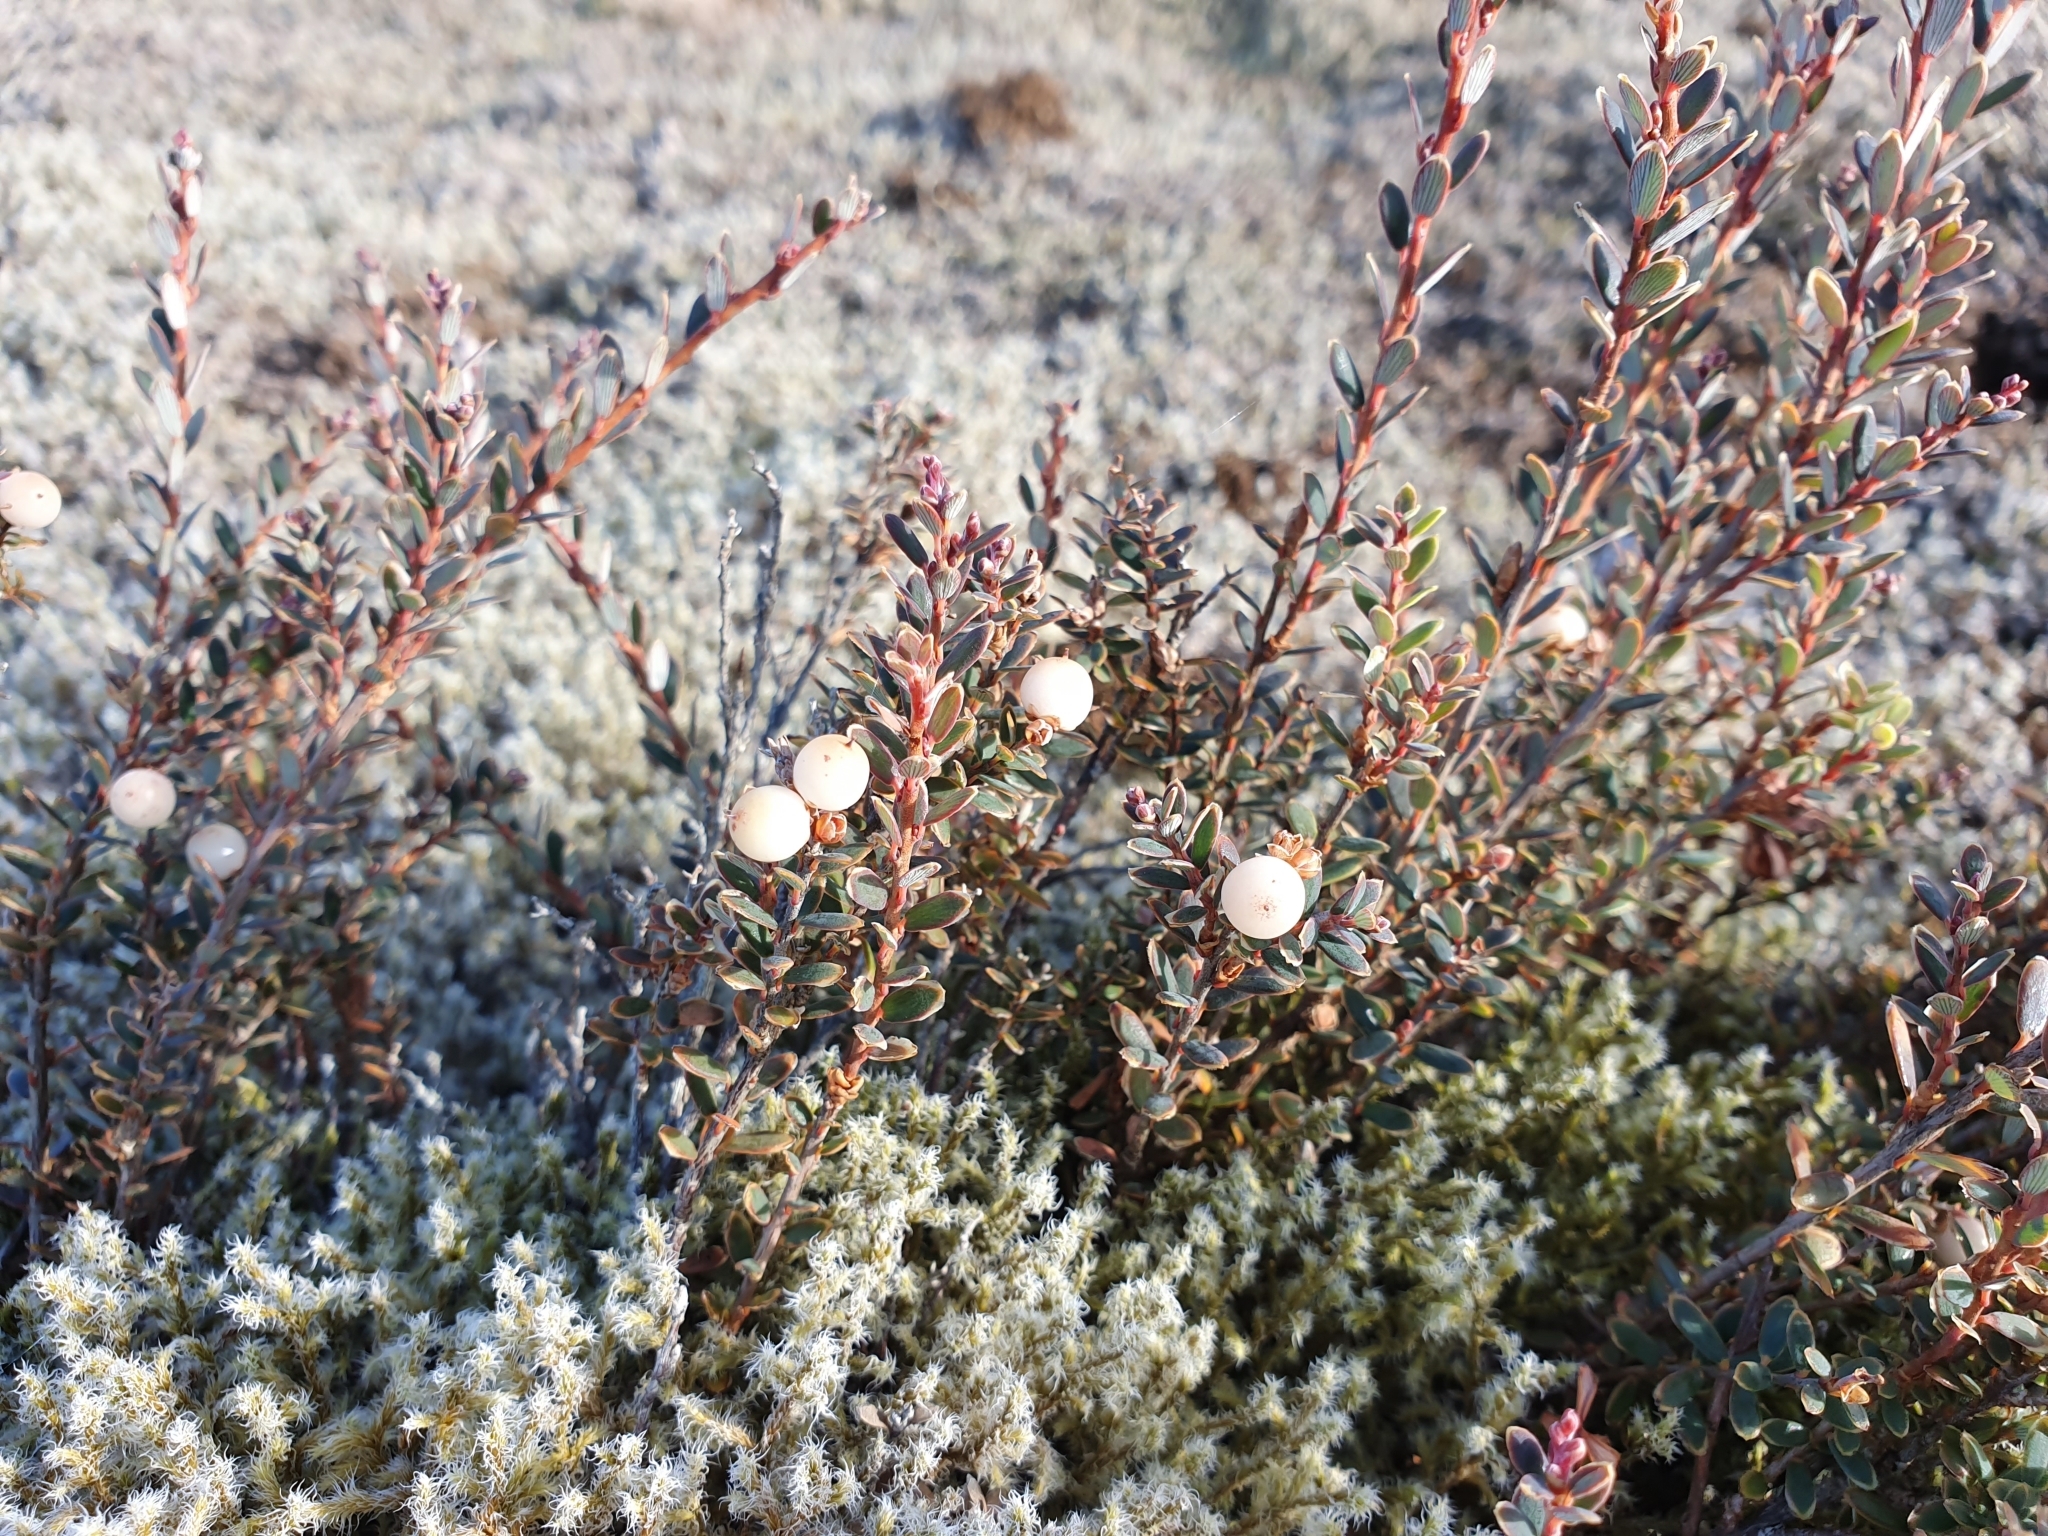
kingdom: Plantae
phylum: Tracheophyta
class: Magnoliopsida
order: Ericales
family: Ericaceae
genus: Acrothamnus
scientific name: Acrothamnus colensoi
